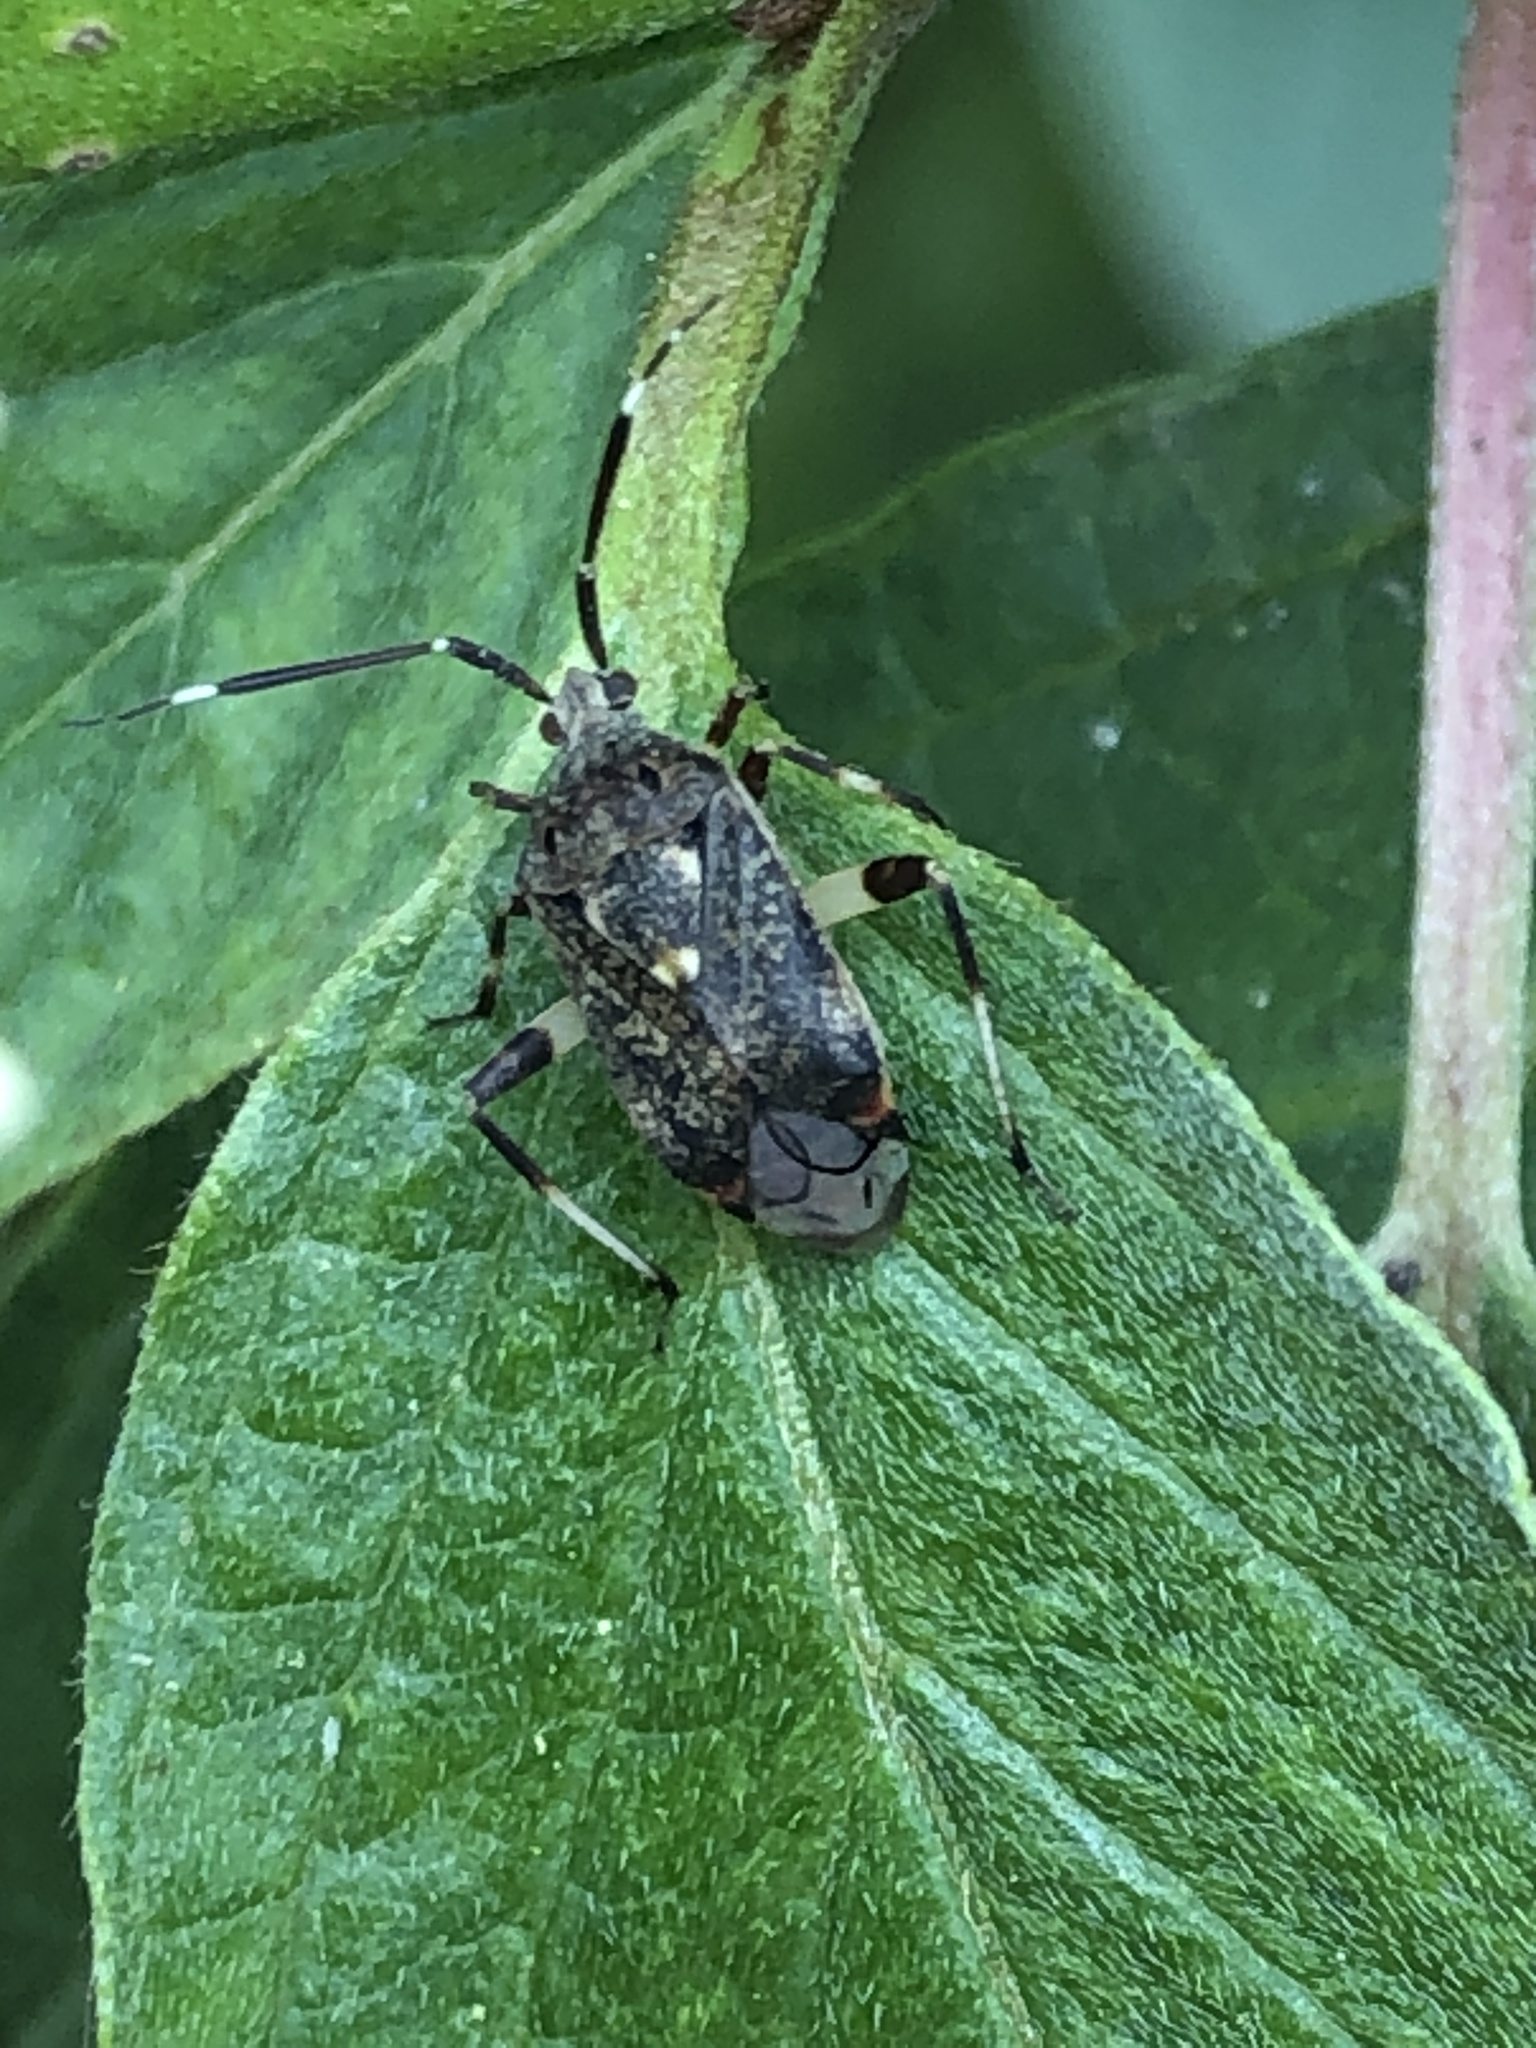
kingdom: Animalia
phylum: Arthropoda
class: Insecta
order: Hemiptera
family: Miridae
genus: Eurystylus
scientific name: Eurystylus coelestialium
